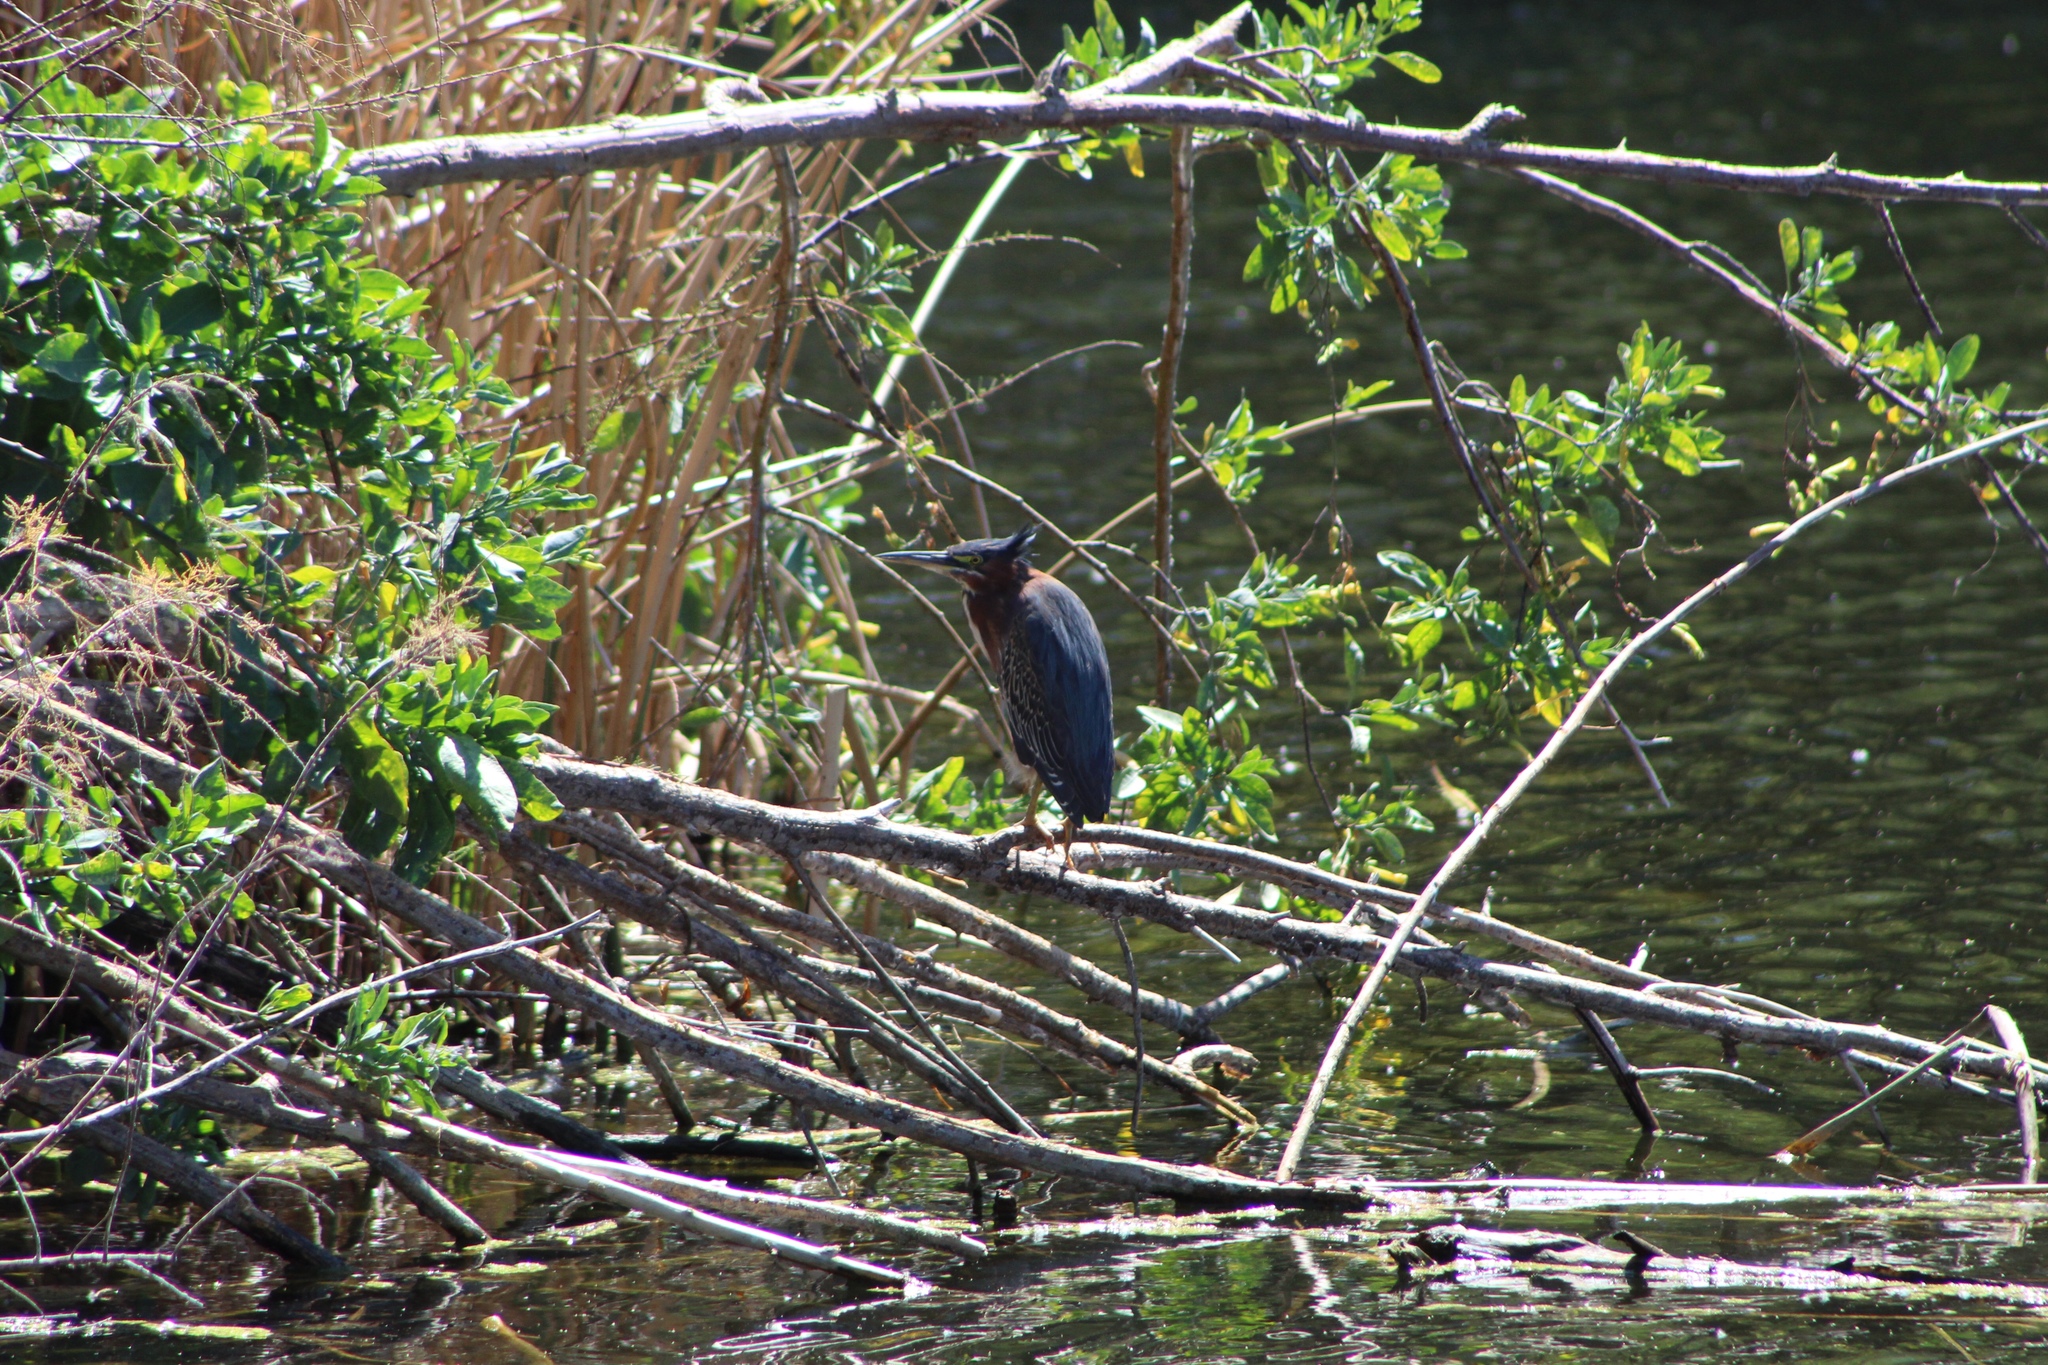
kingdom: Animalia
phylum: Chordata
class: Aves
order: Pelecaniformes
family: Ardeidae
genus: Butorides
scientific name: Butorides virescens
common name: Green heron
